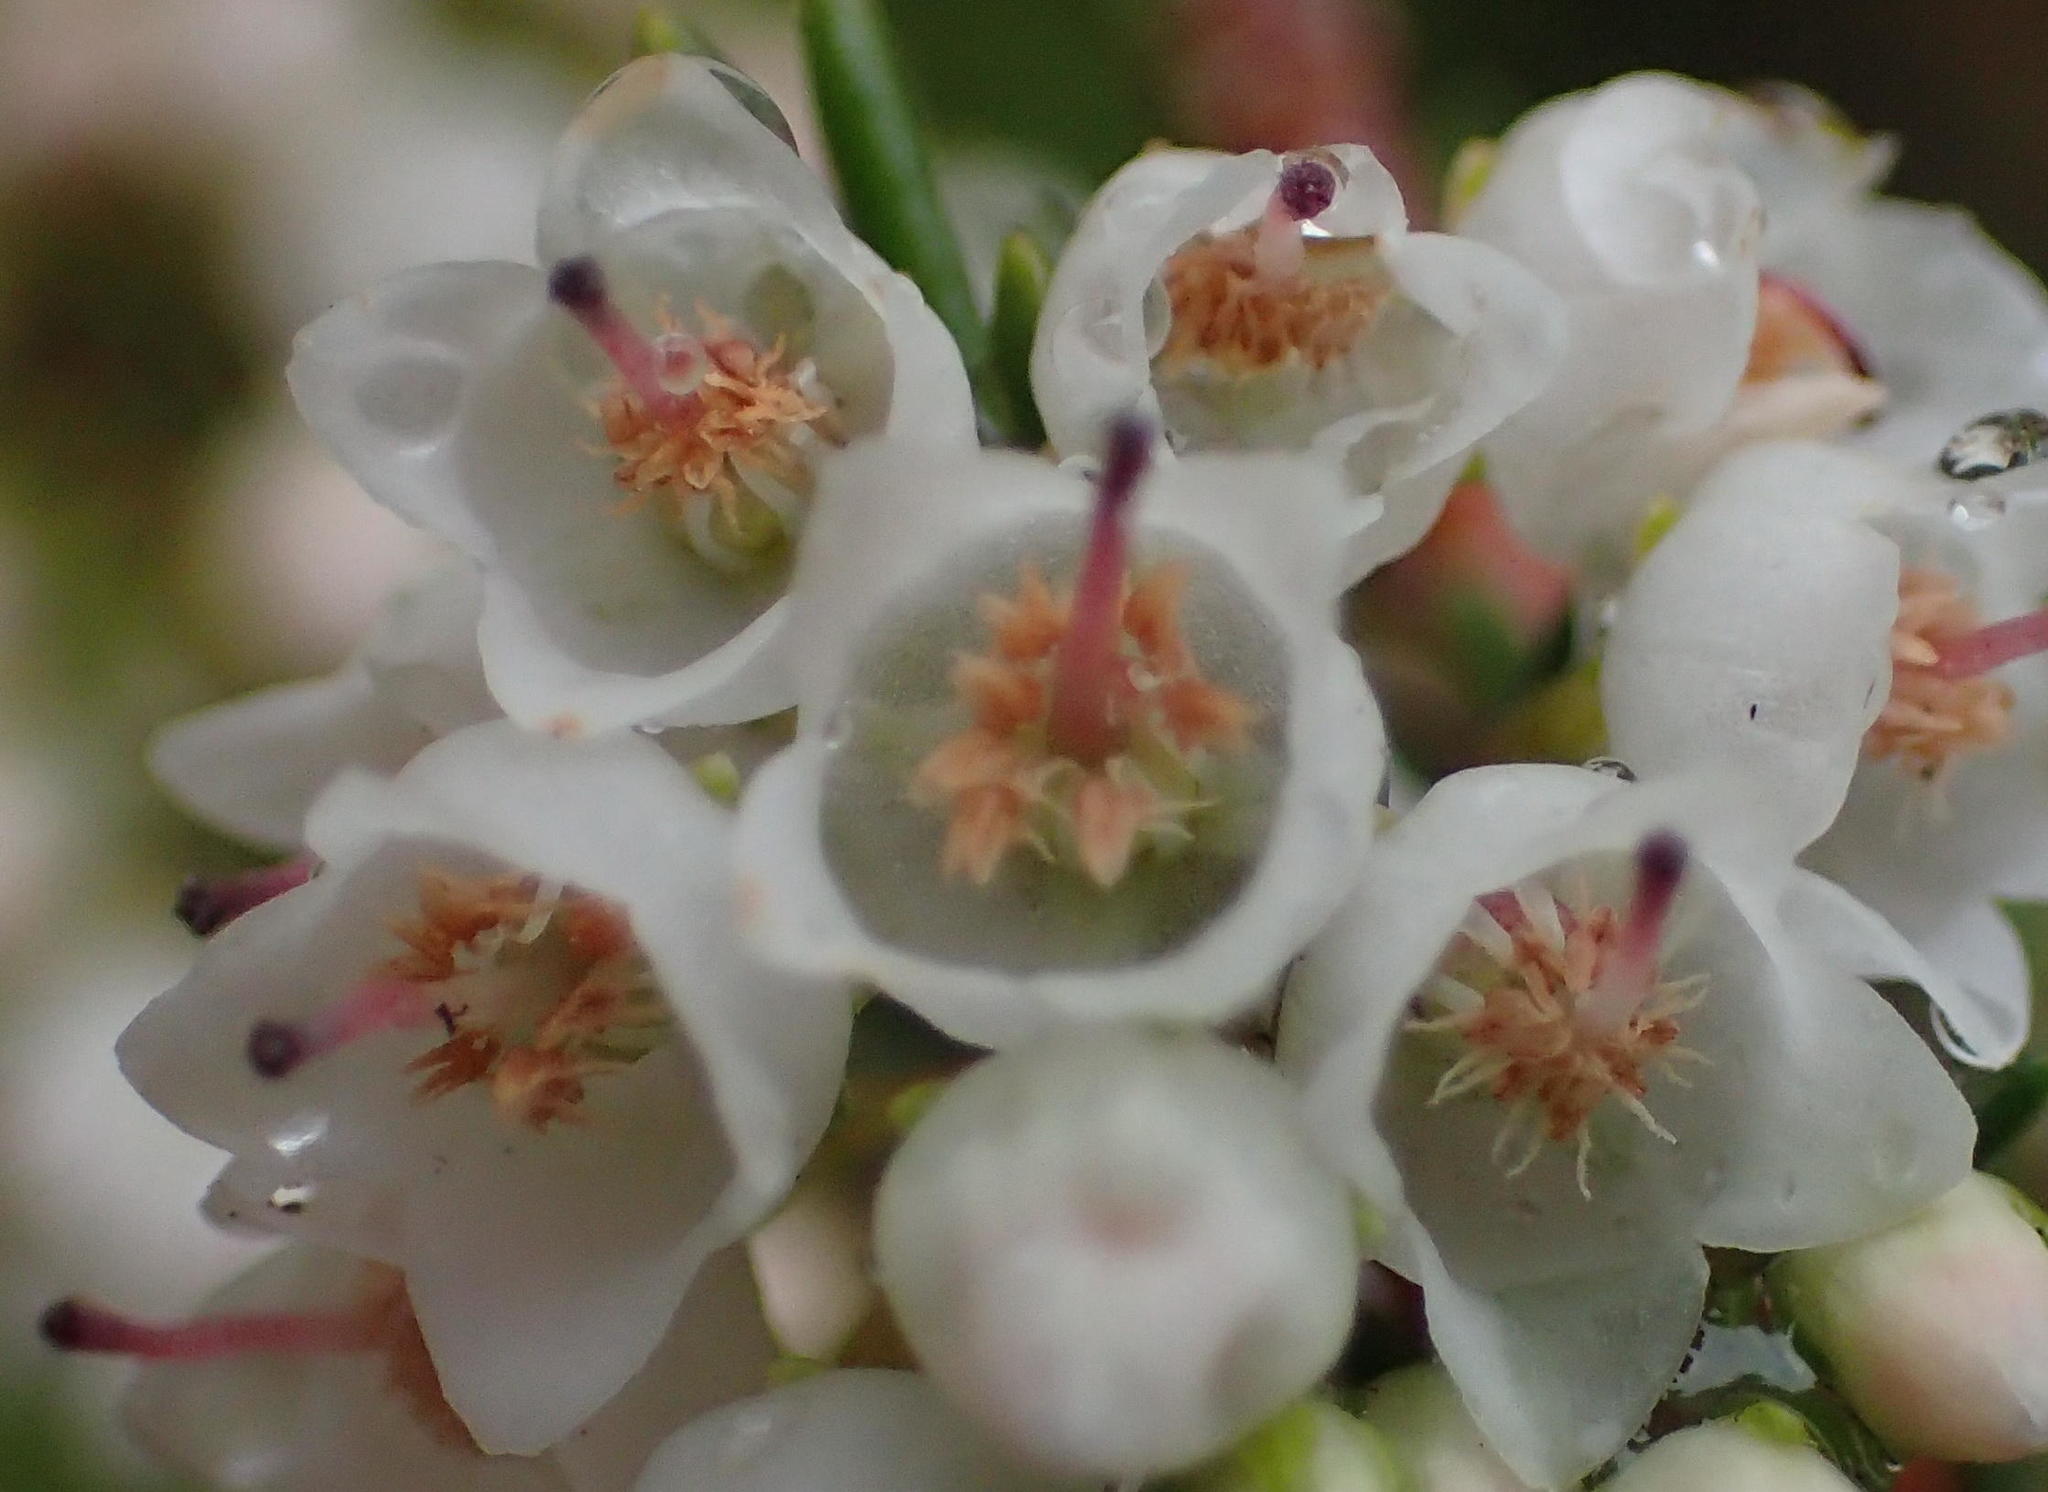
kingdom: Plantae
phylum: Tracheophyta
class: Magnoliopsida
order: Ericales
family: Ericaceae
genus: Erica
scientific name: Erica tenuis
